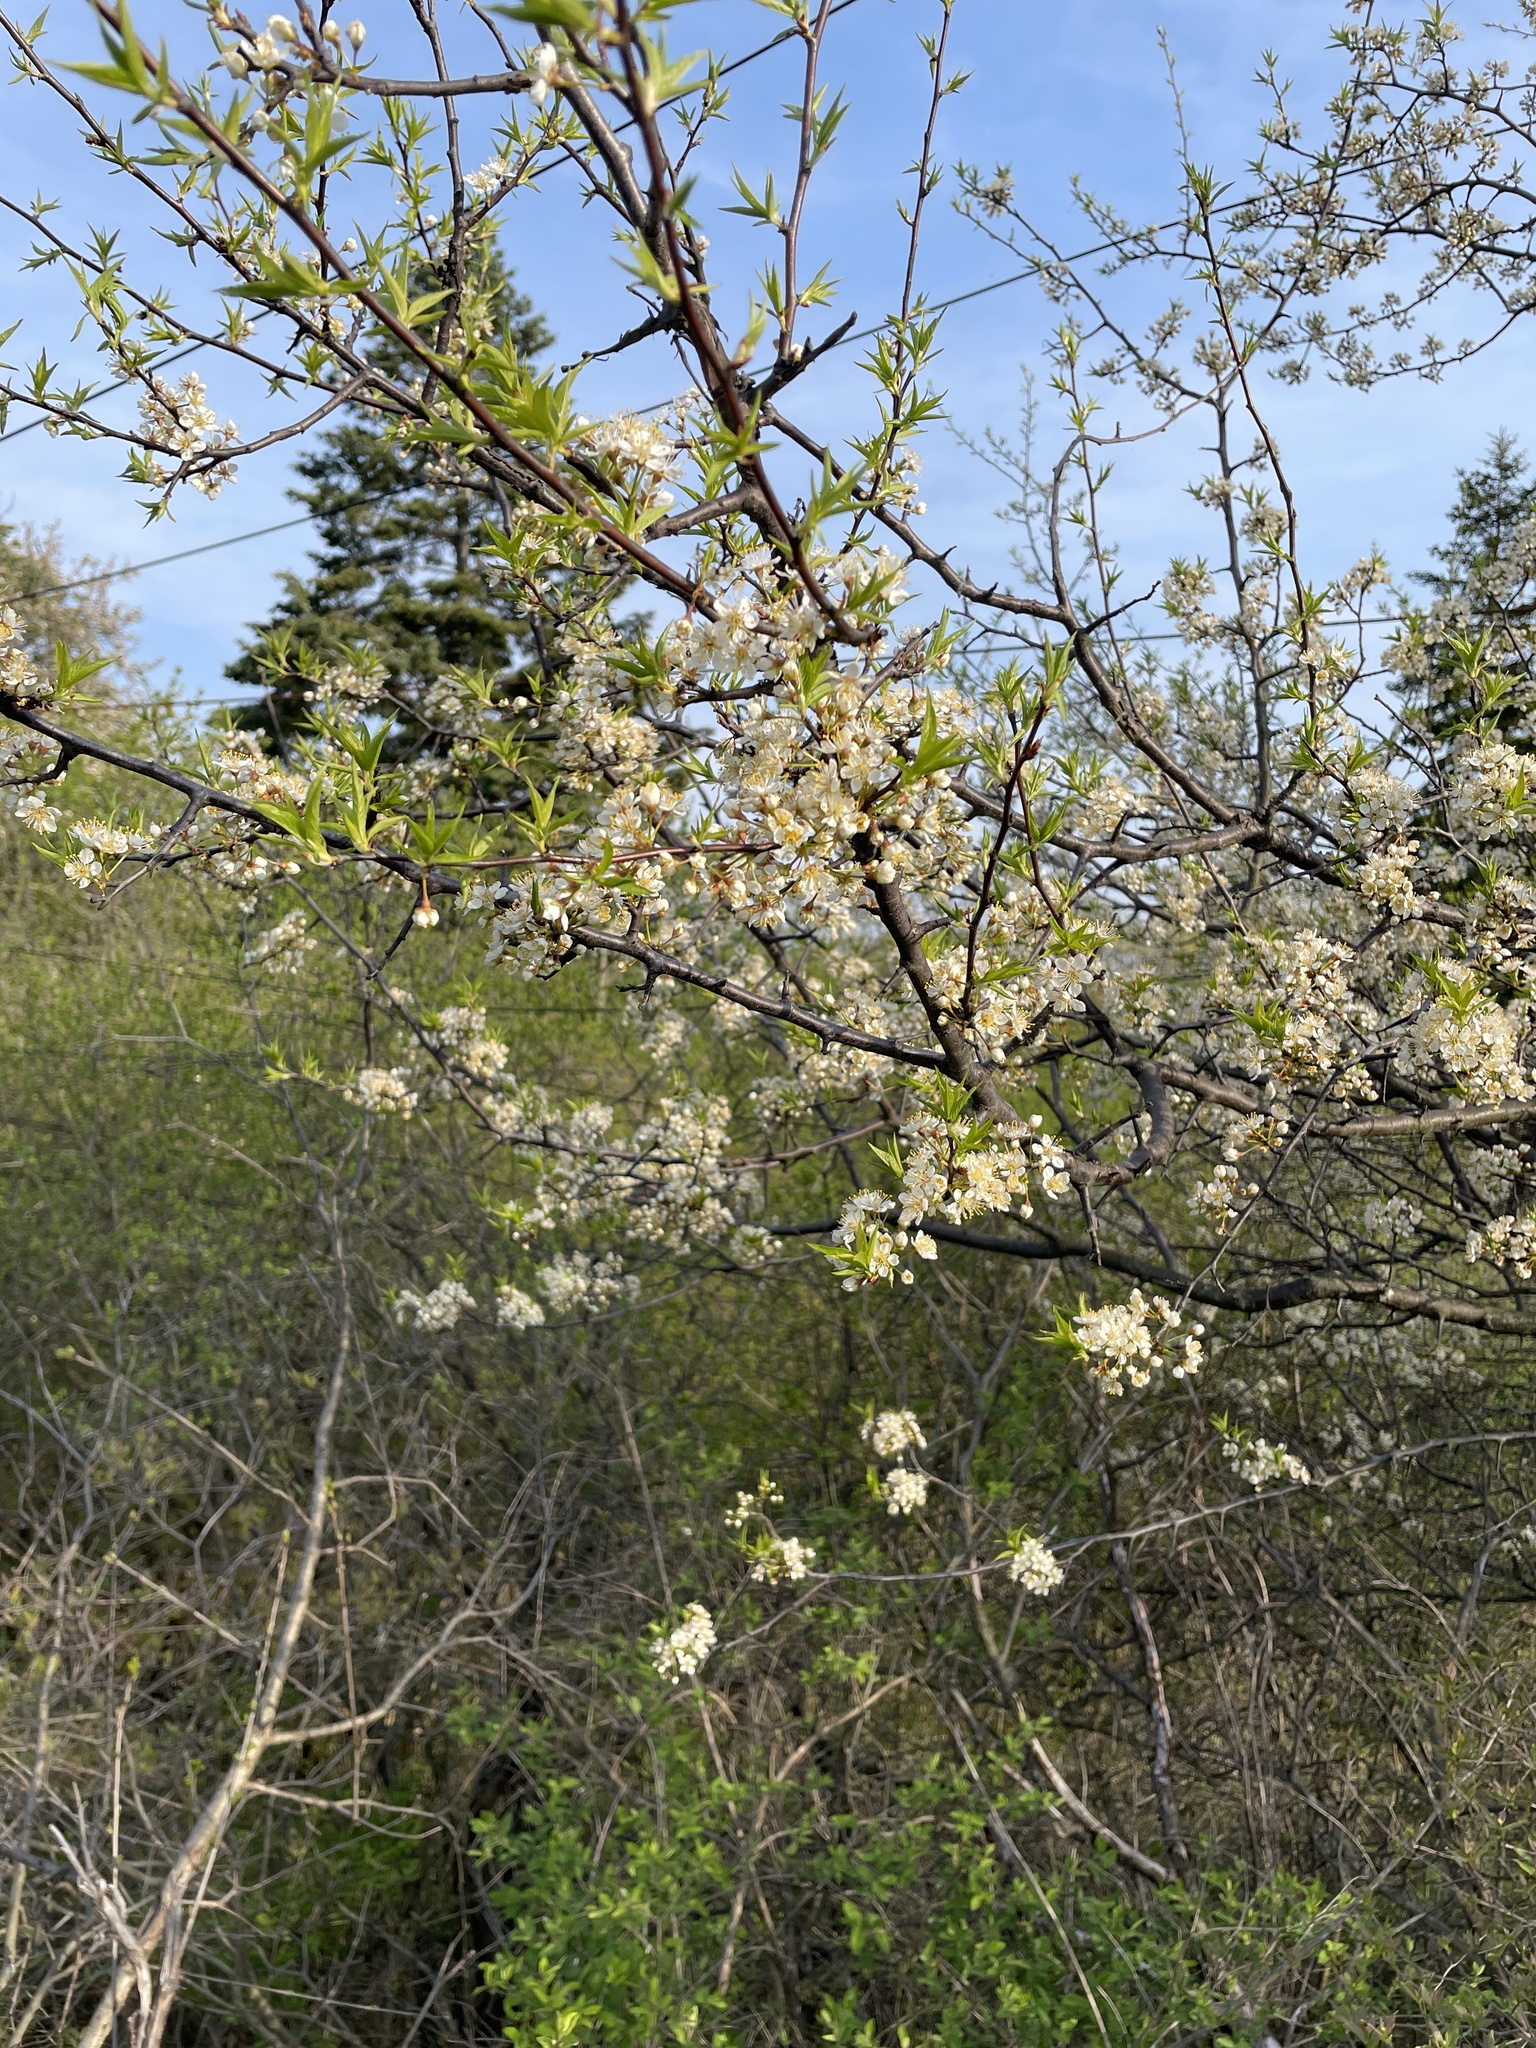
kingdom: Plantae
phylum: Tracheophyta
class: Magnoliopsida
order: Rosales
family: Rosaceae
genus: Prunus
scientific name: Prunus americana
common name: American plum
